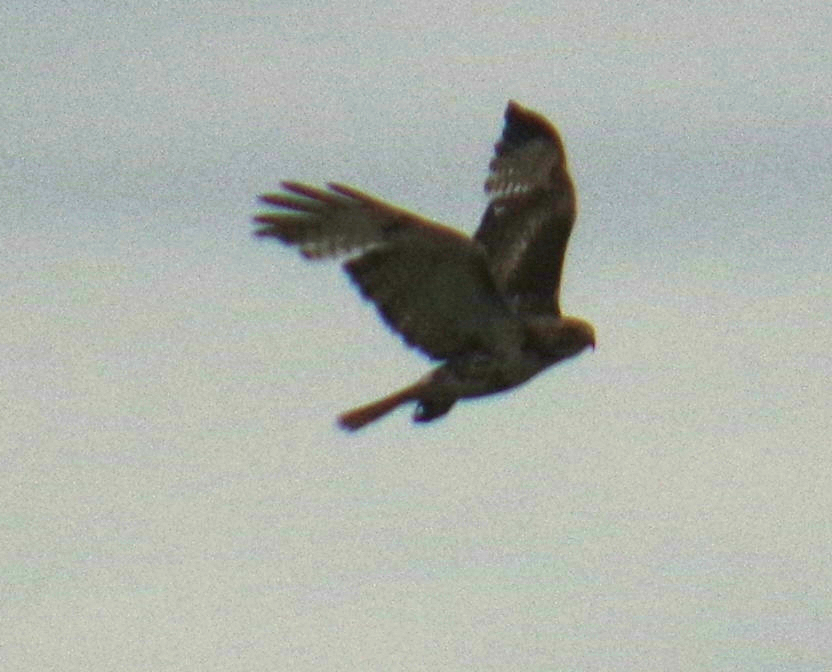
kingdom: Animalia
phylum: Chordata
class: Aves
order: Accipitriformes
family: Accipitridae
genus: Buteo
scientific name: Buteo jamaicensis
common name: Red-tailed hawk
